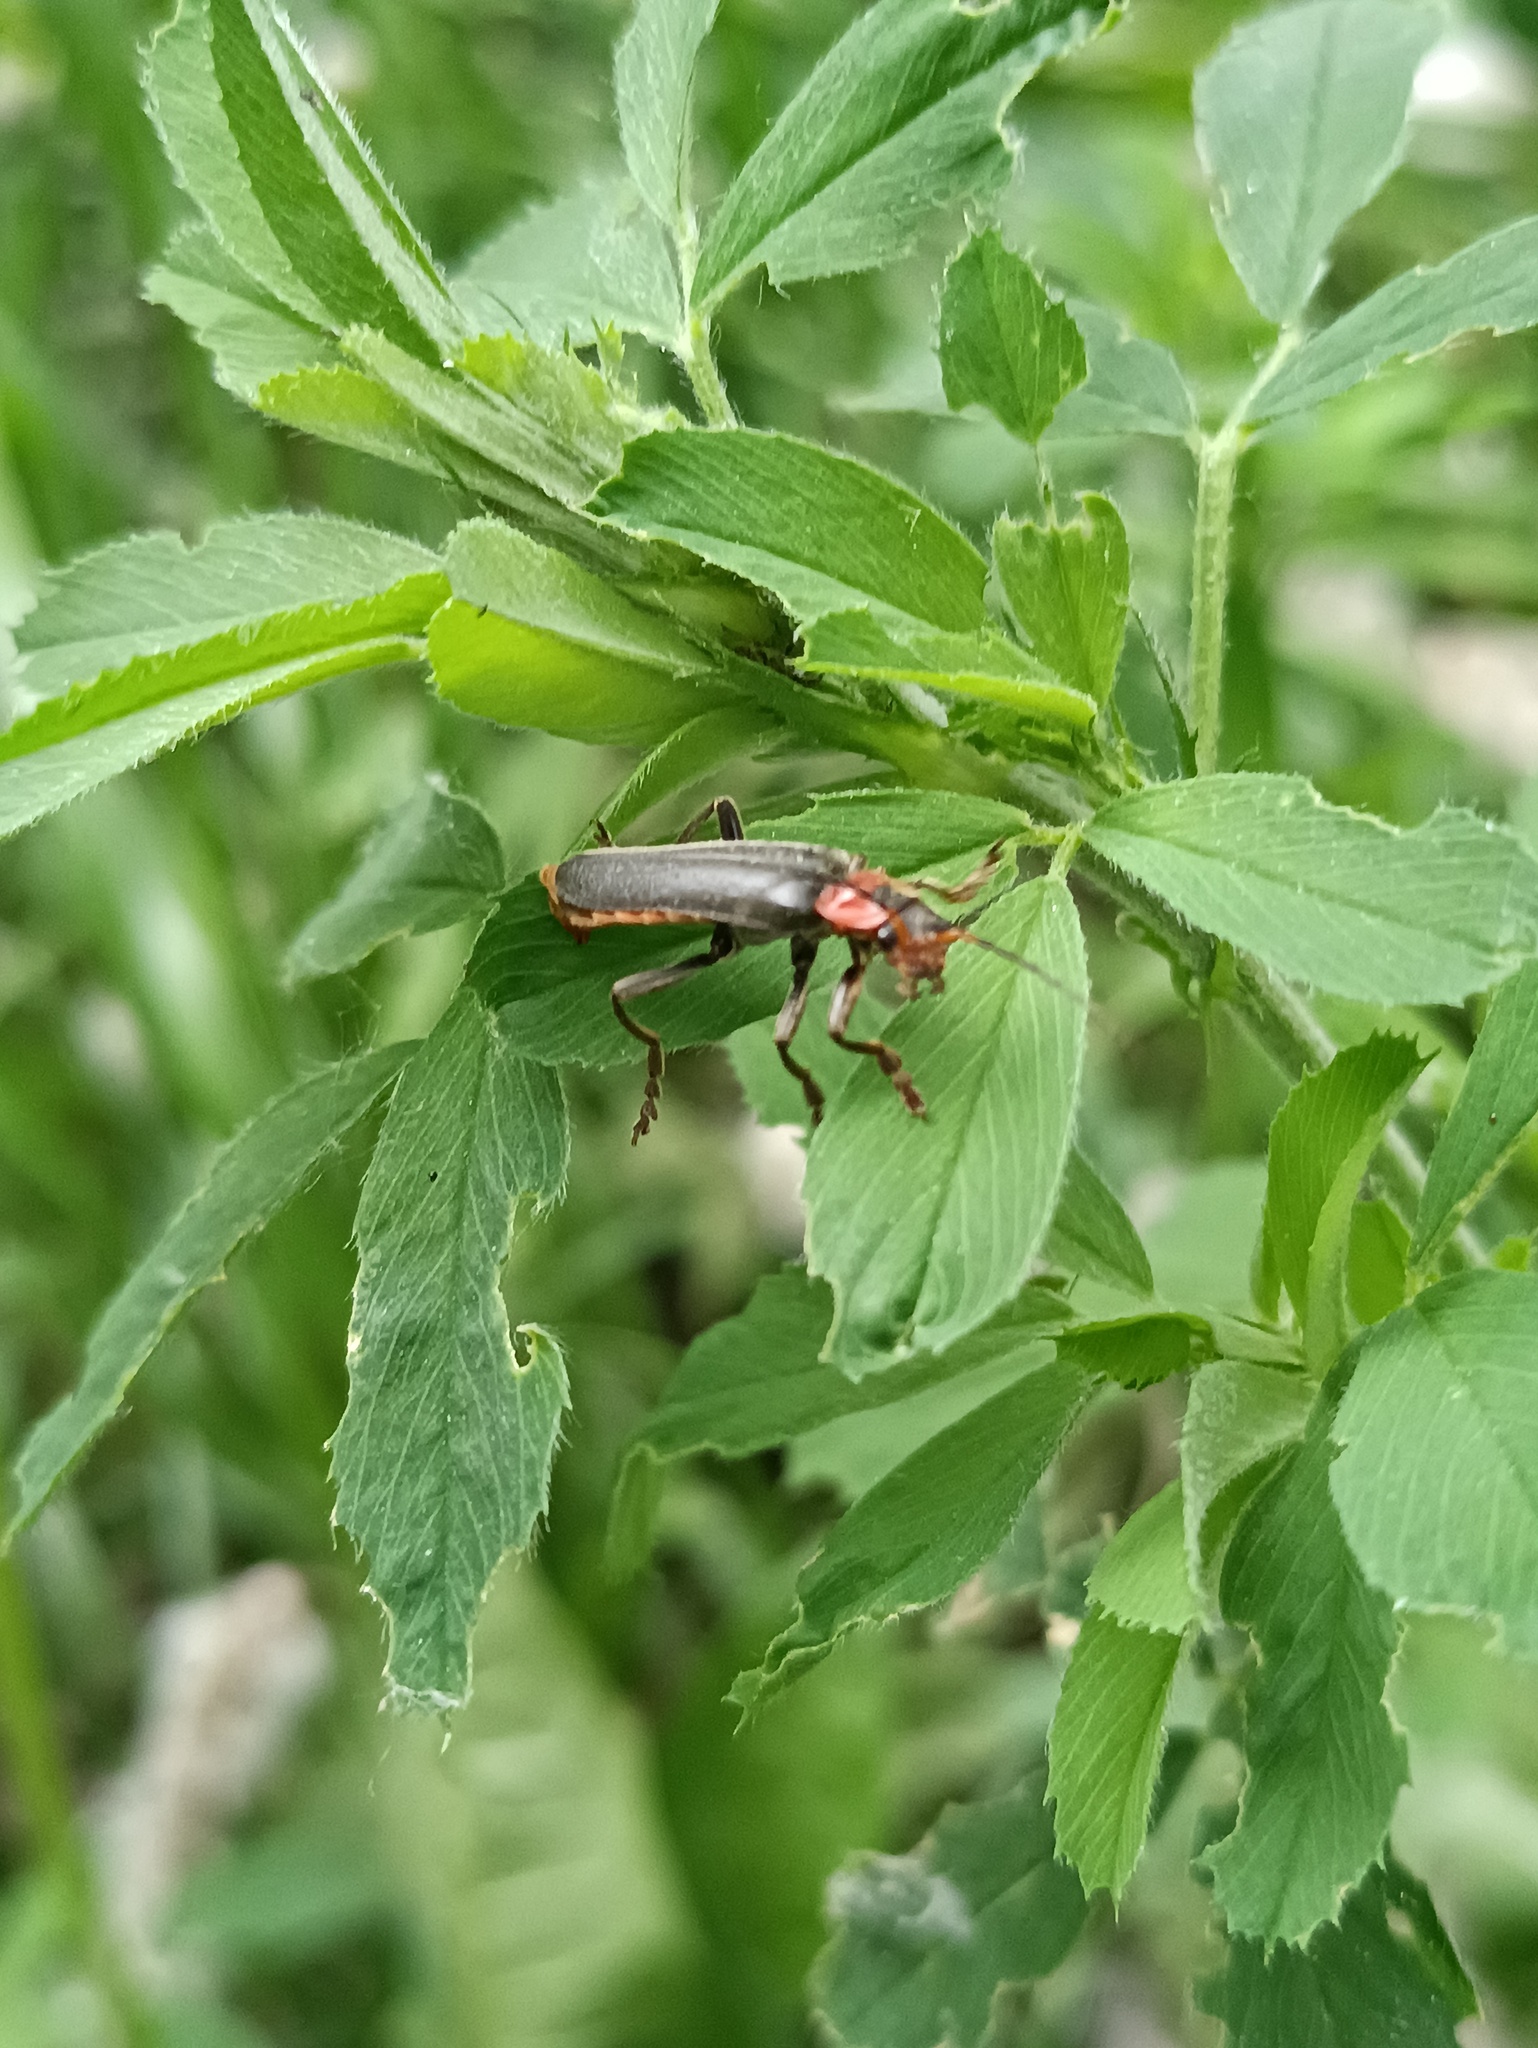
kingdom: Animalia
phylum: Arthropoda
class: Insecta
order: Coleoptera
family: Cantharidae
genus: Cantharis
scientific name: Cantharis fusca
